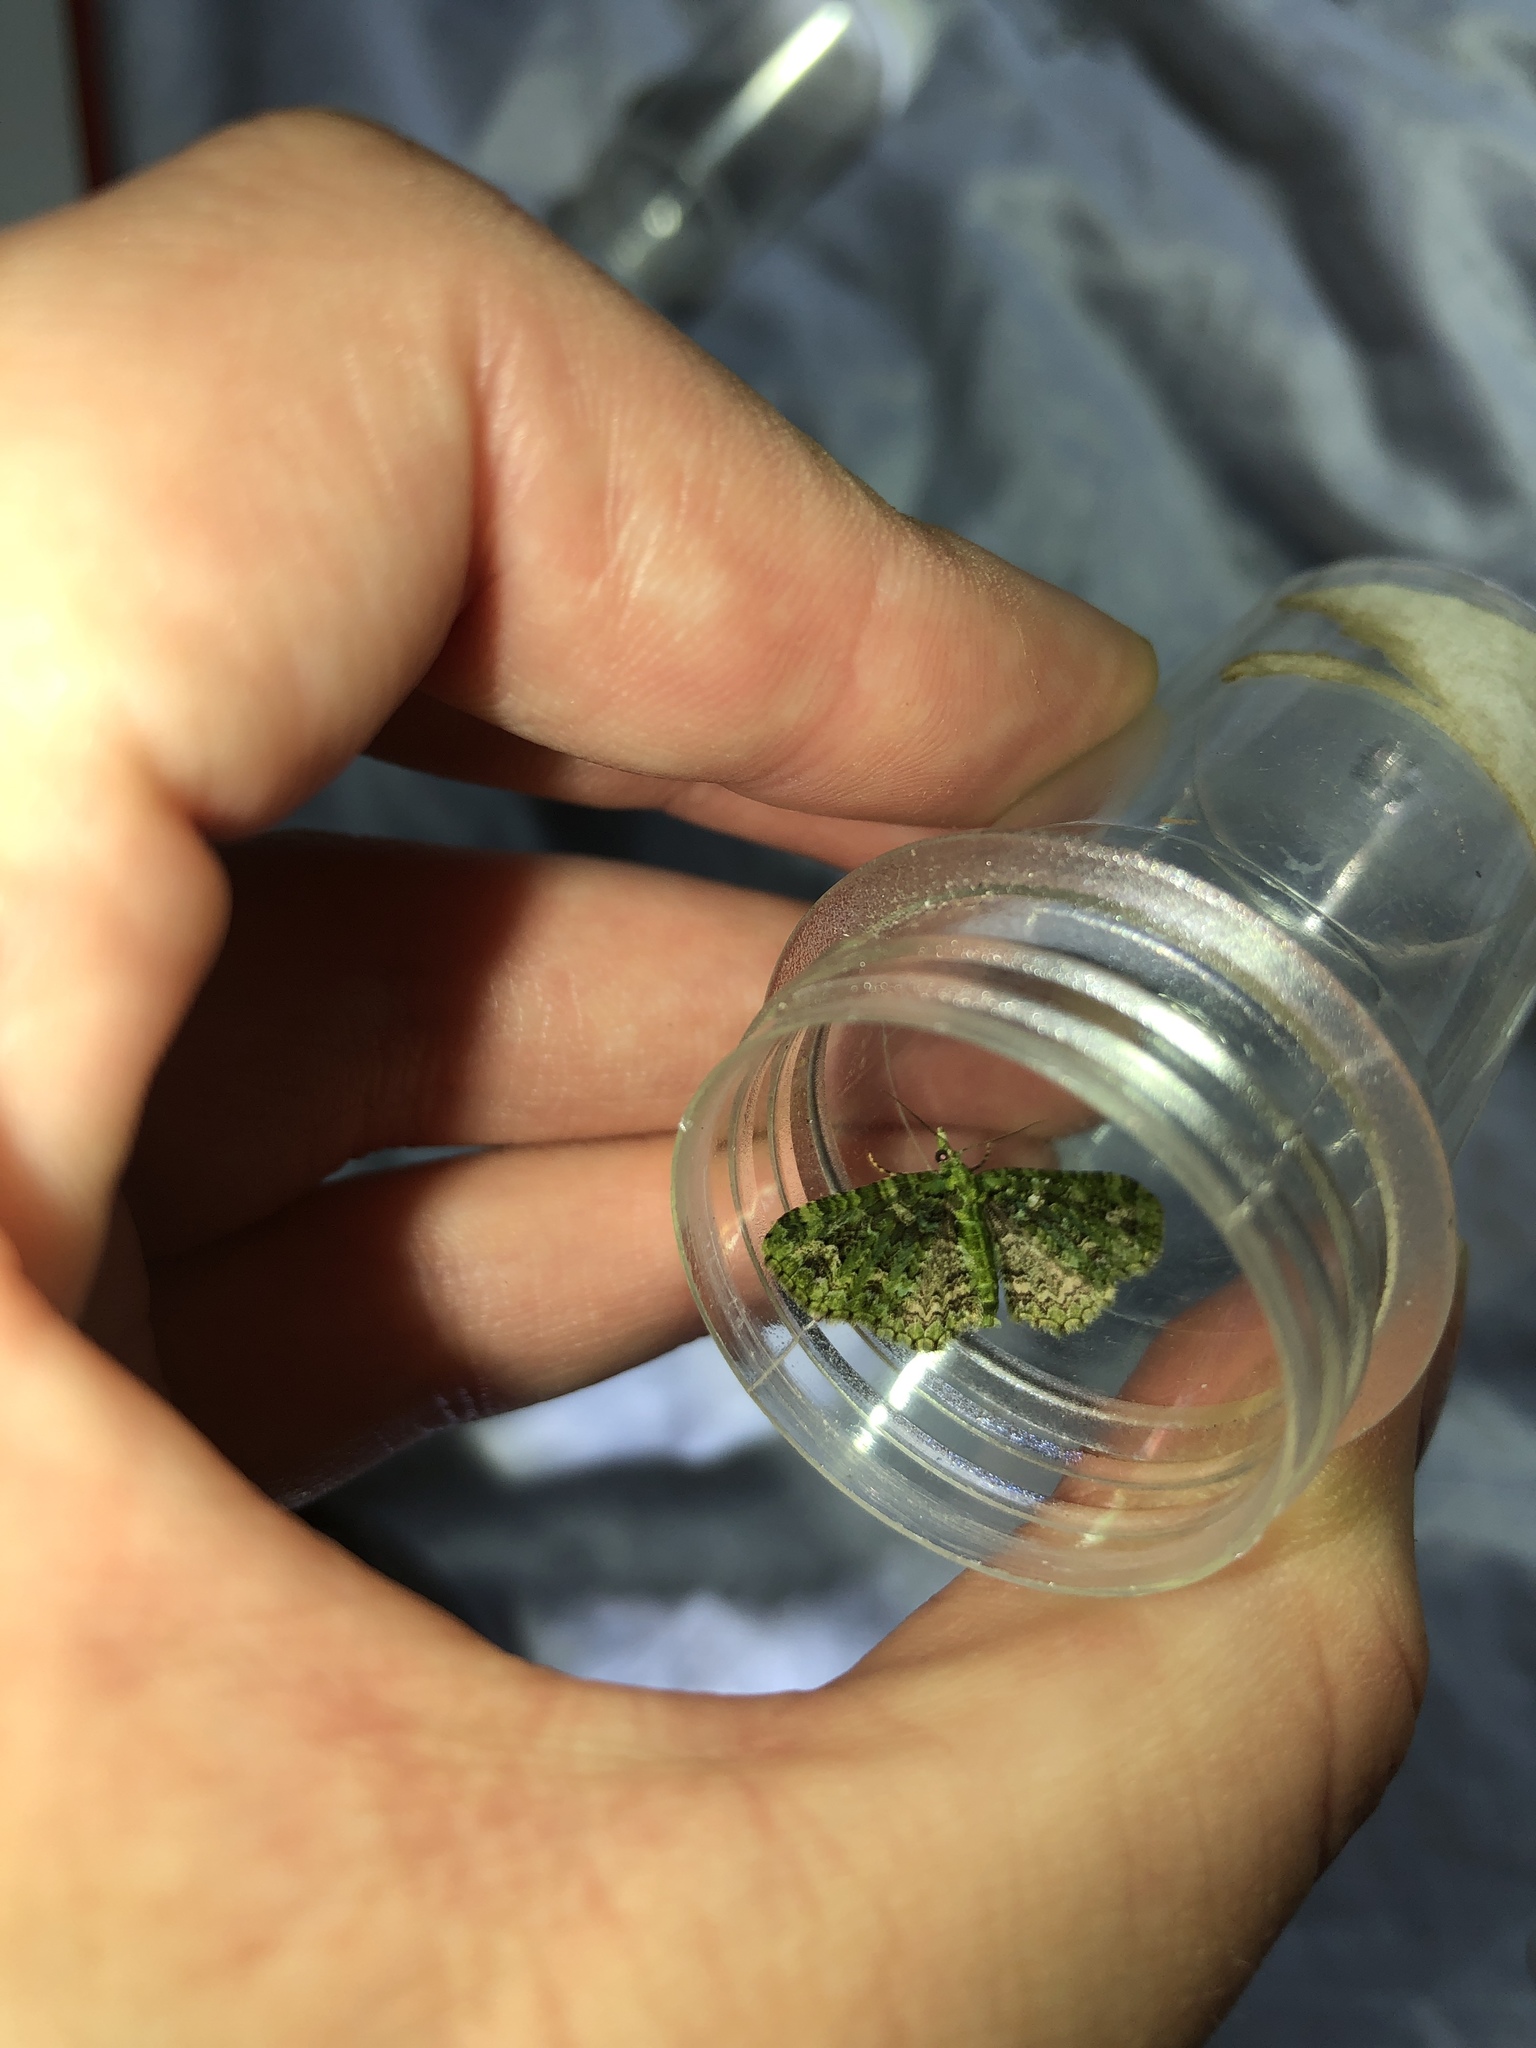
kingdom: Animalia
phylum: Arthropoda
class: Insecta
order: Lepidoptera
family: Geometridae
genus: Pasiphila
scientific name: Pasiphila muscosata
